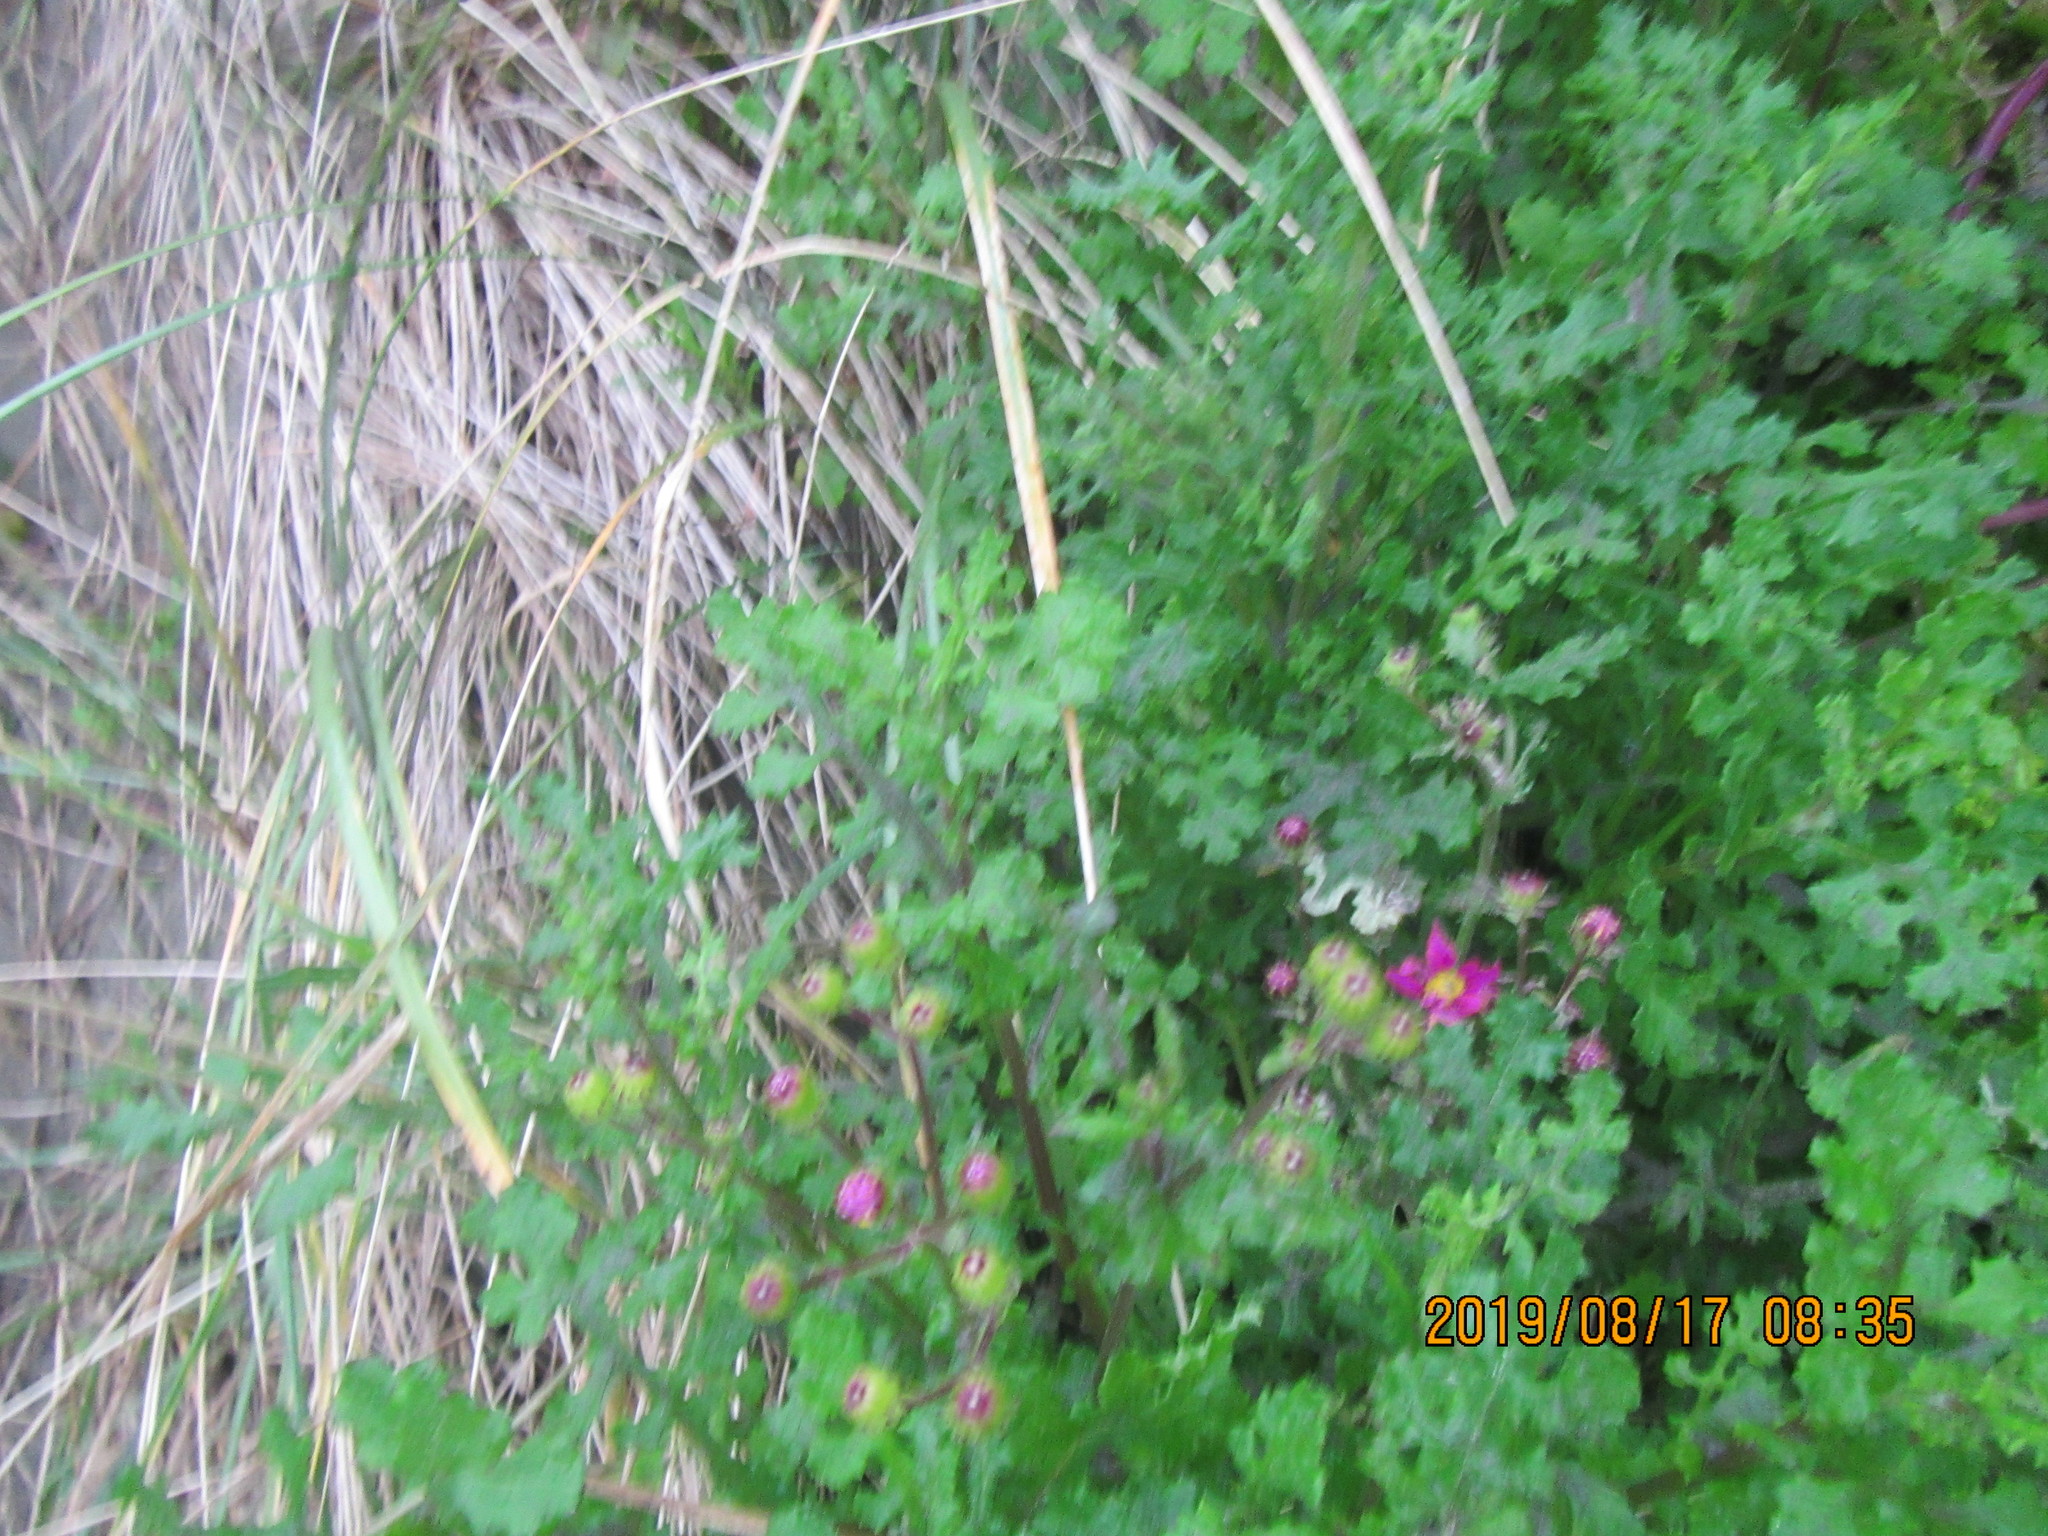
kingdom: Plantae
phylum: Tracheophyta
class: Magnoliopsida
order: Asterales
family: Asteraceae
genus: Senecio
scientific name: Senecio elegans
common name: Purple groundsel
